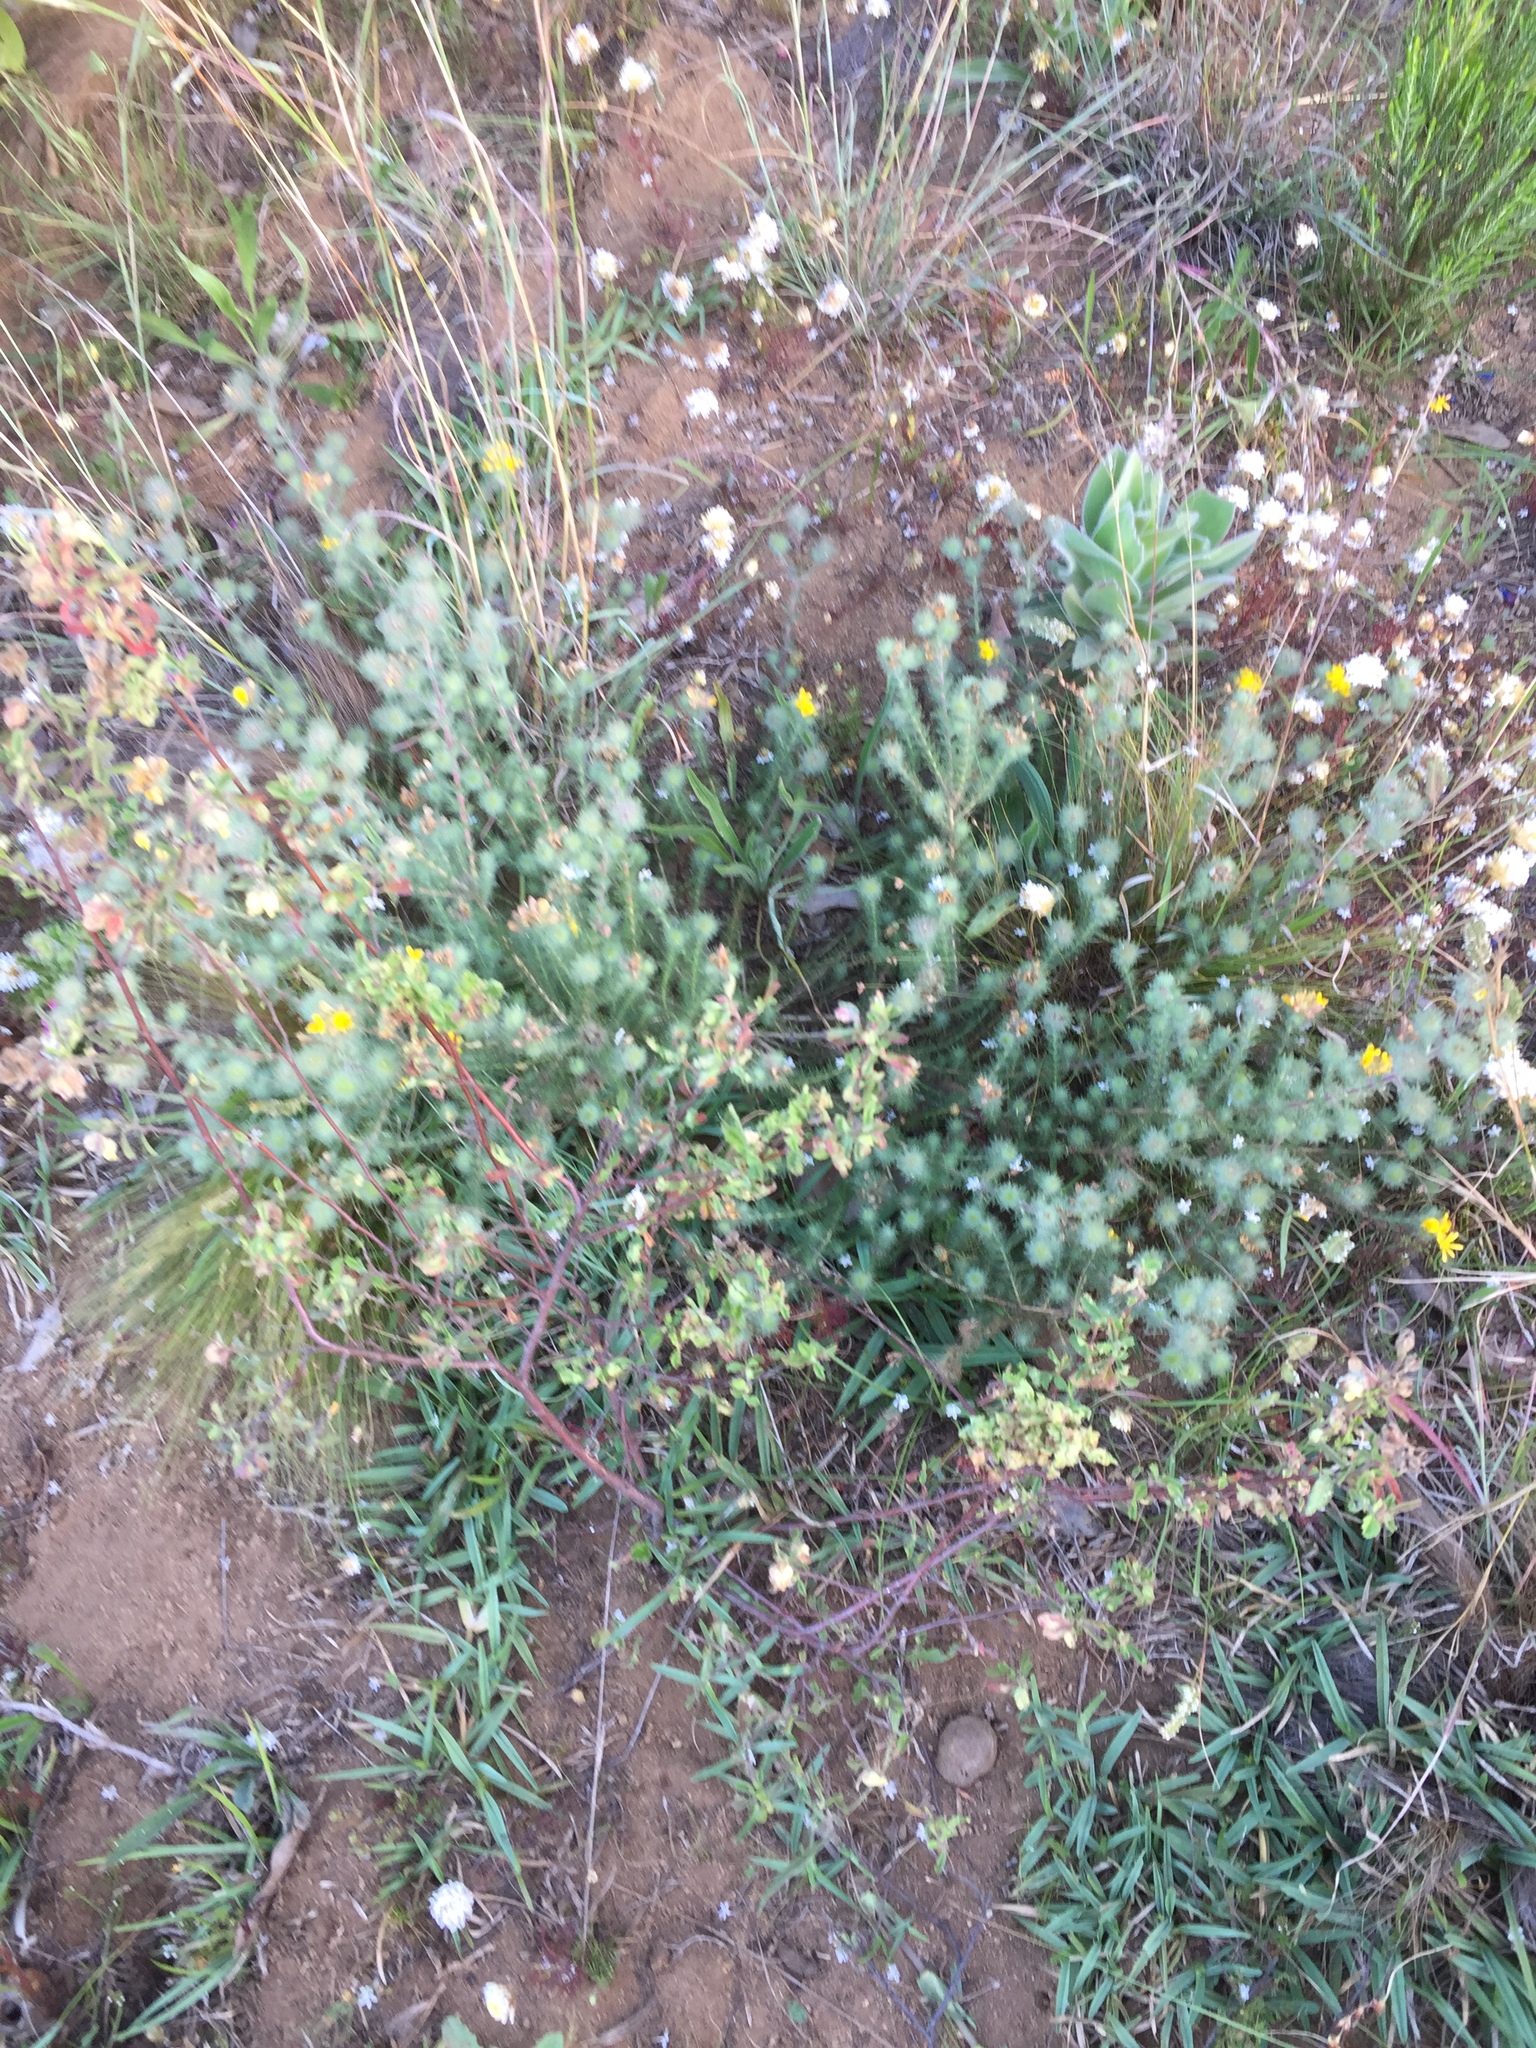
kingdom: Plantae
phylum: Tracheophyta
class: Magnoliopsida
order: Fabales
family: Fabaceae
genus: Aspalathus
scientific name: Aspalathus araneosa
